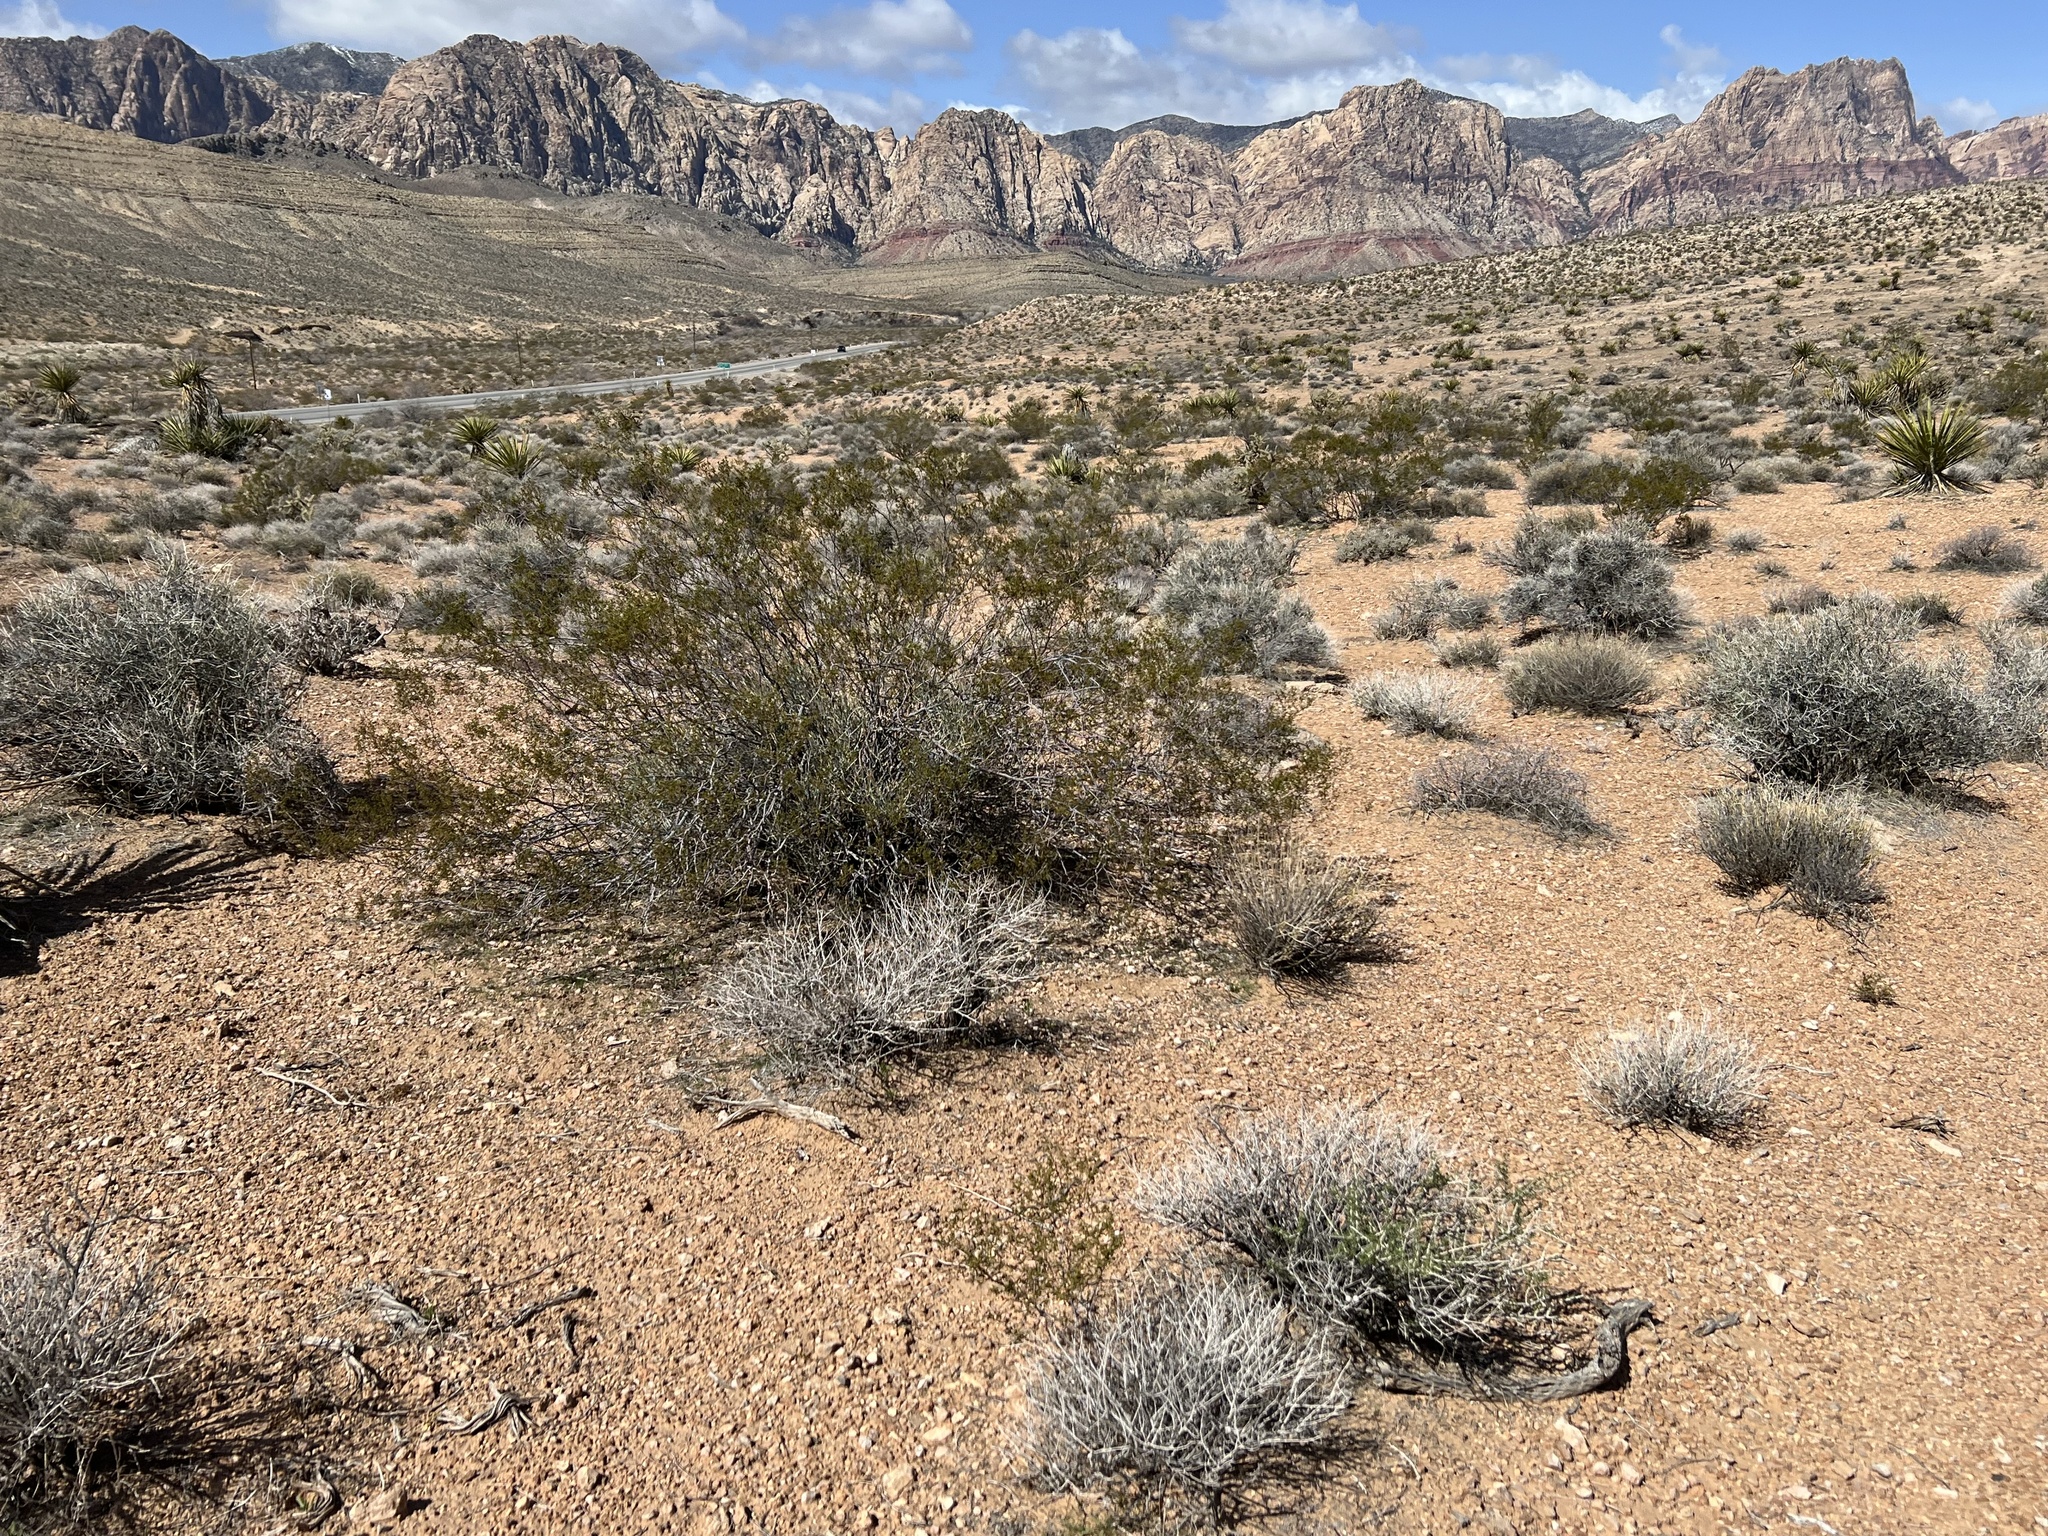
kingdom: Plantae
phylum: Tracheophyta
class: Magnoliopsida
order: Zygophyllales
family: Zygophyllaceae
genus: Larrea
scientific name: Larrea tridentata
